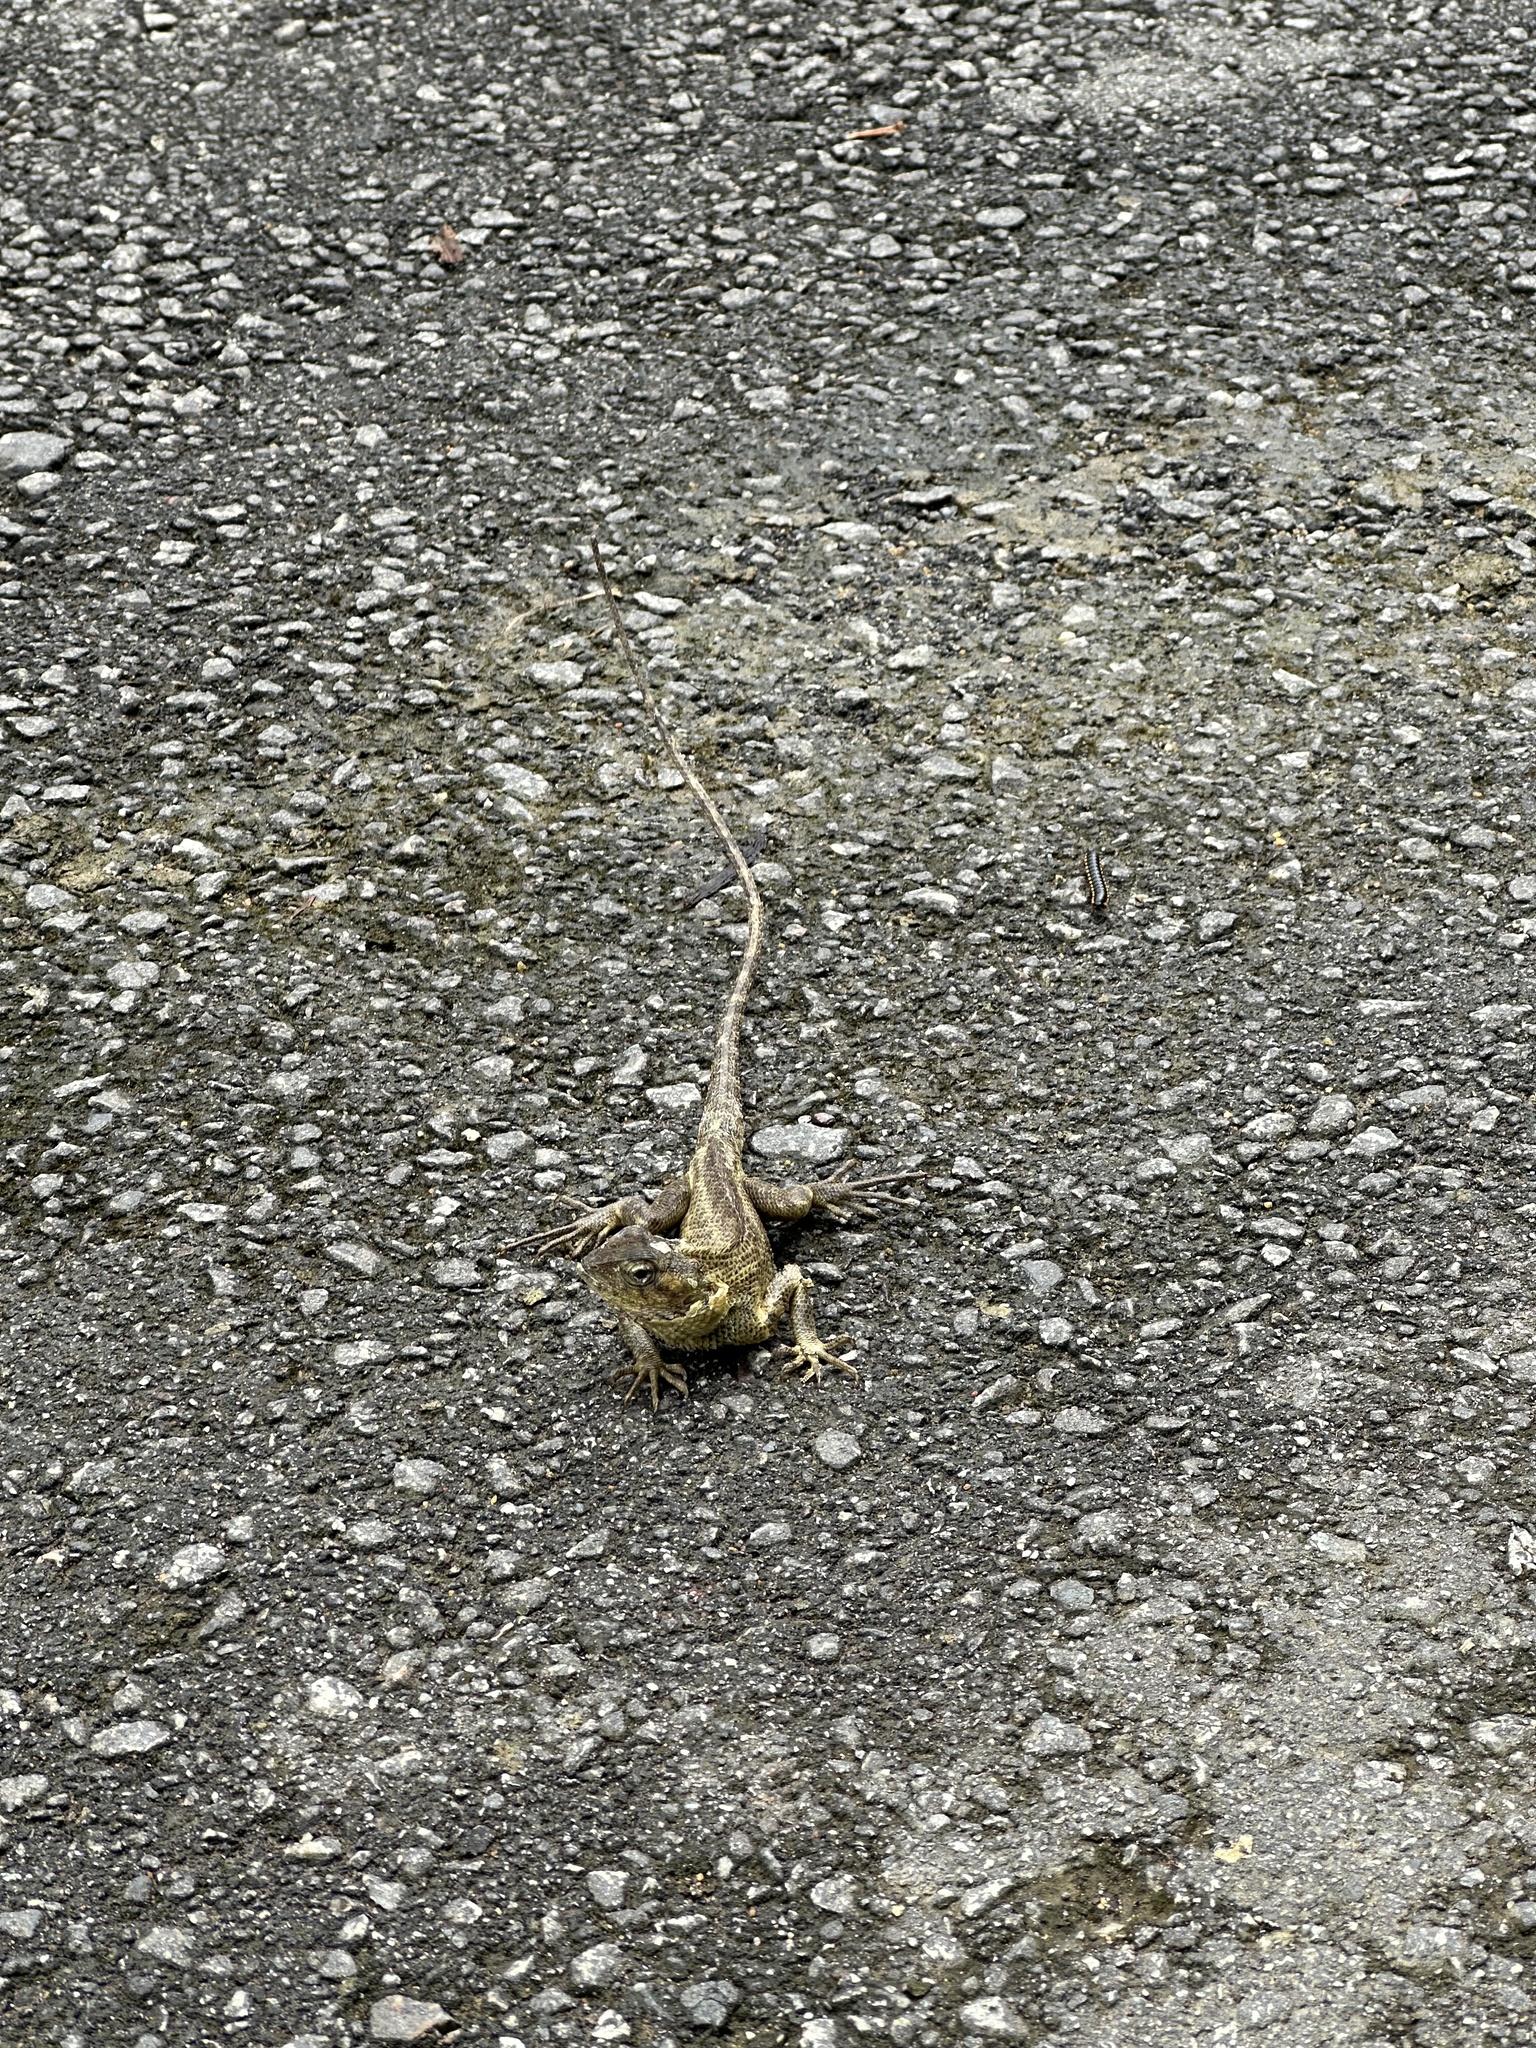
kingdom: Animalia
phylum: Chordata
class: Squamata
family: Agamidae
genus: Calotes
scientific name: Calotes versicolor
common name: Oriental garden lizard
